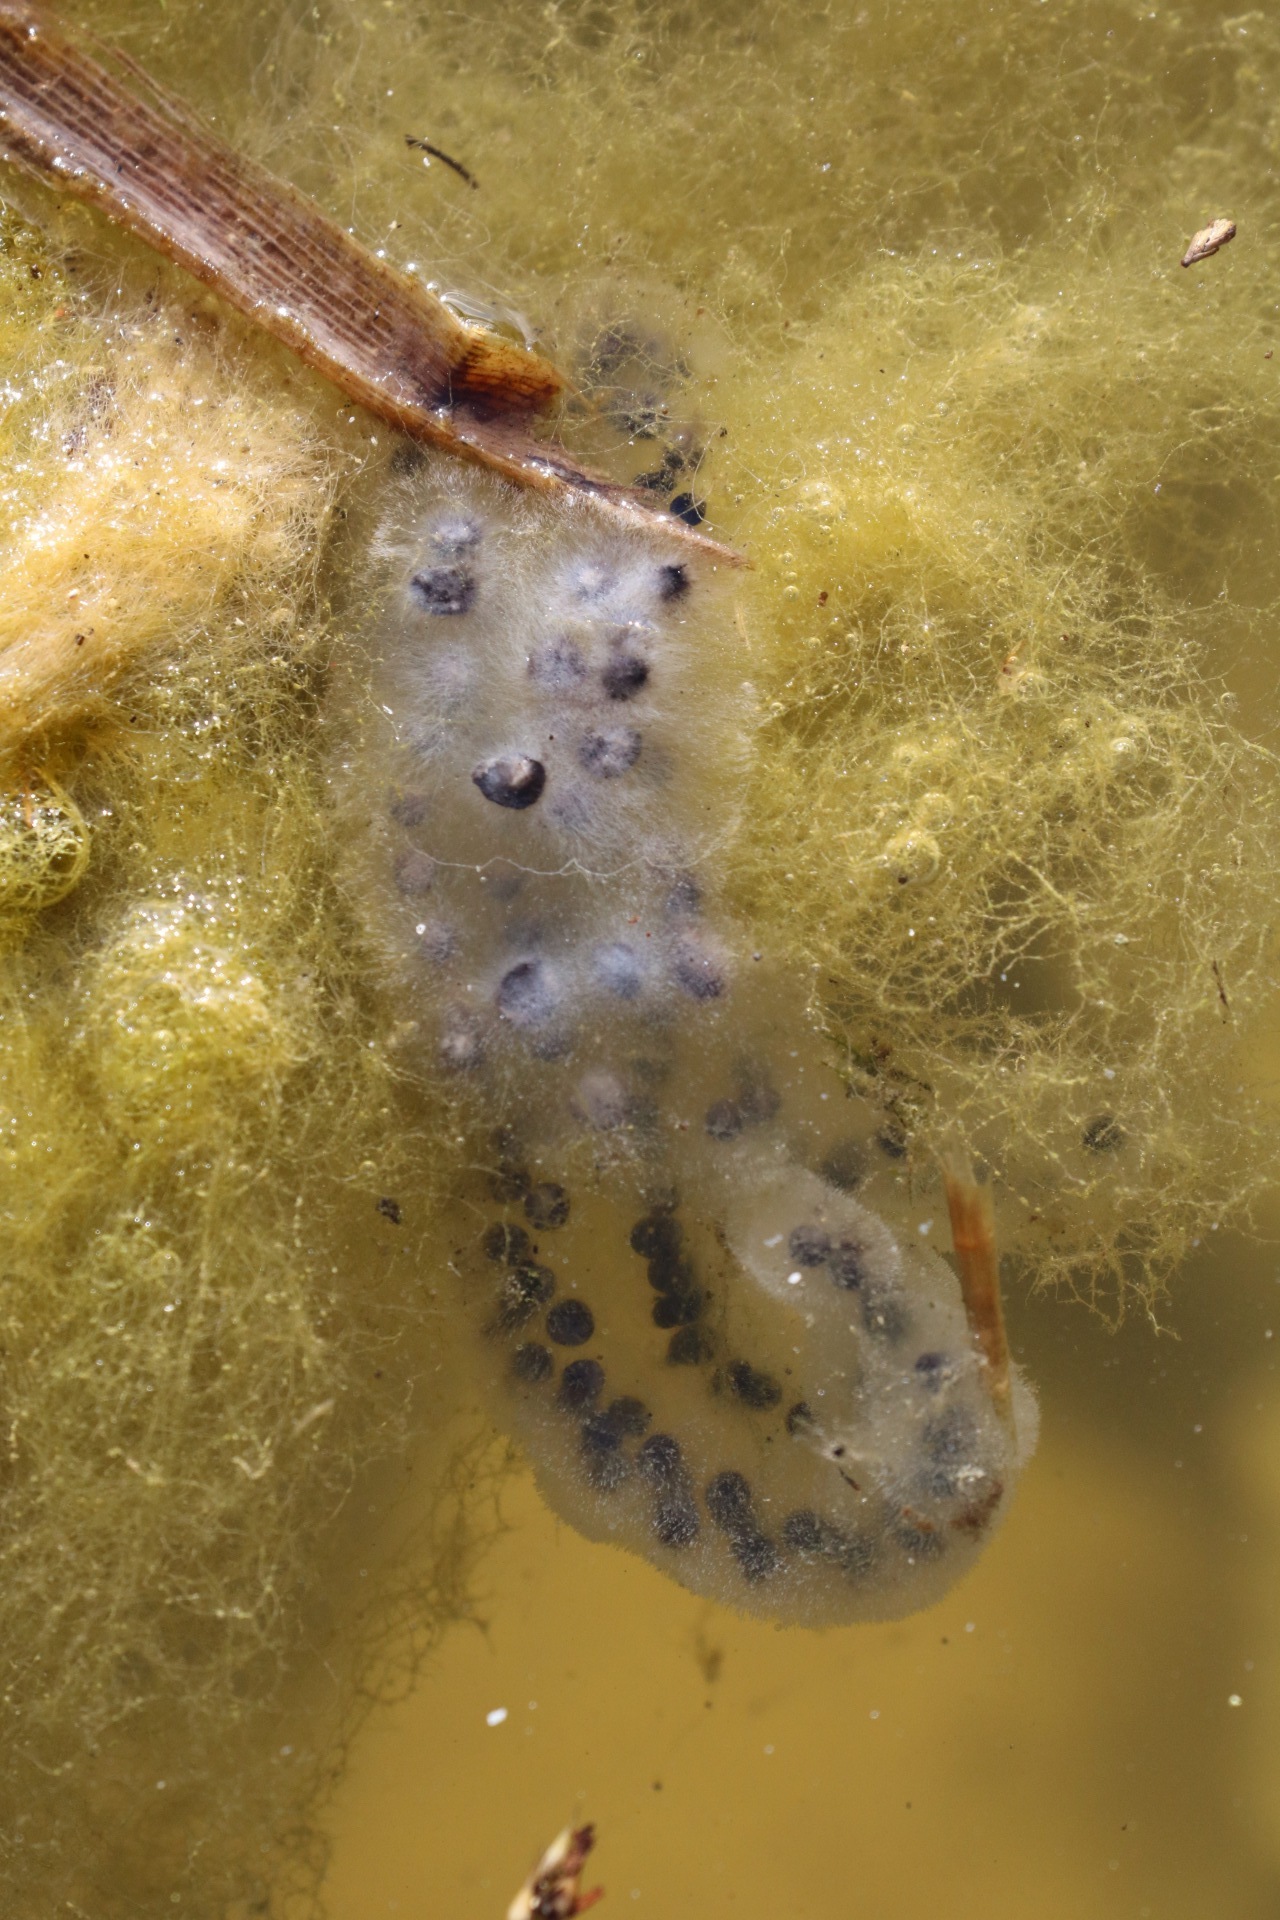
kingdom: Animalia
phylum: Chordata
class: Amphibia
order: Anura
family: Bufonidae
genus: Bufo
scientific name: Bufo bufo
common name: Common toad
